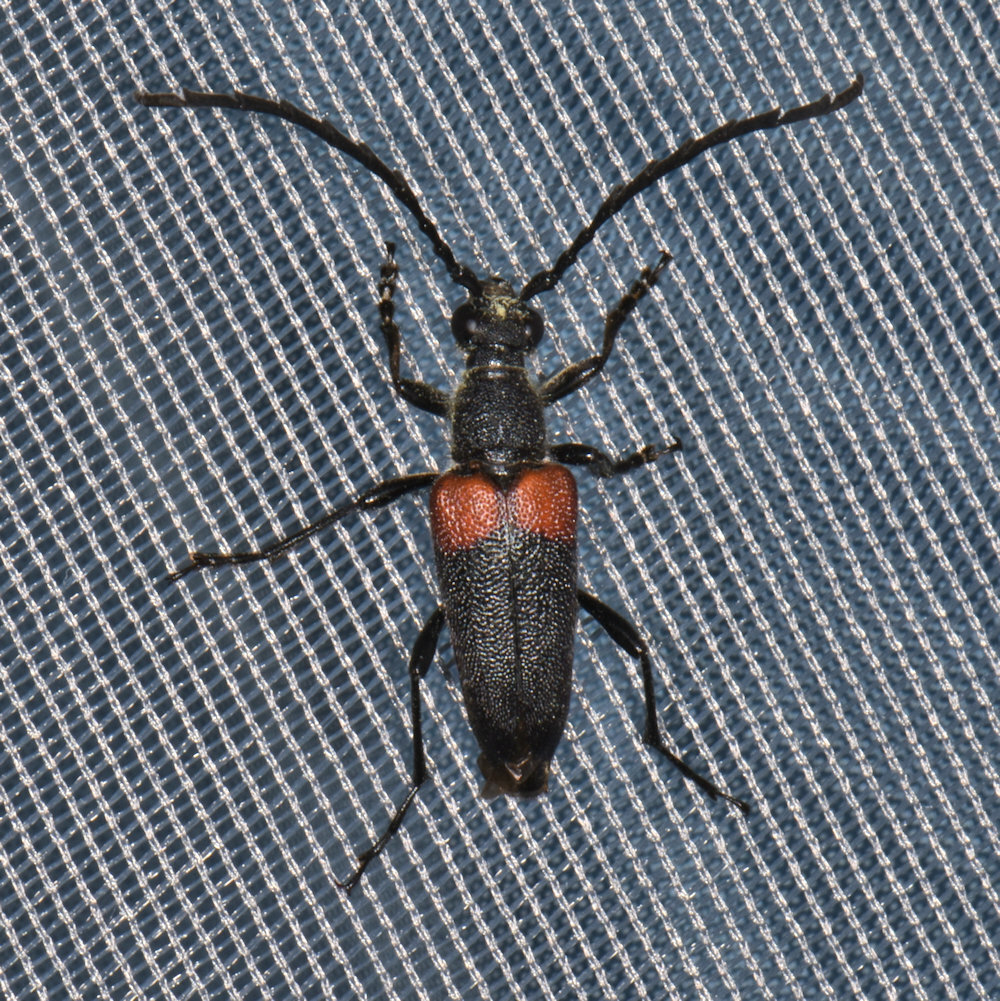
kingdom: Animalia
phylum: Arthropoda
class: Insecta
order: Coleoptera
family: Cerambycidae
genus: Stictoleptura
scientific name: Stictoleptura canadensis
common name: Red-shouldered pine borer
